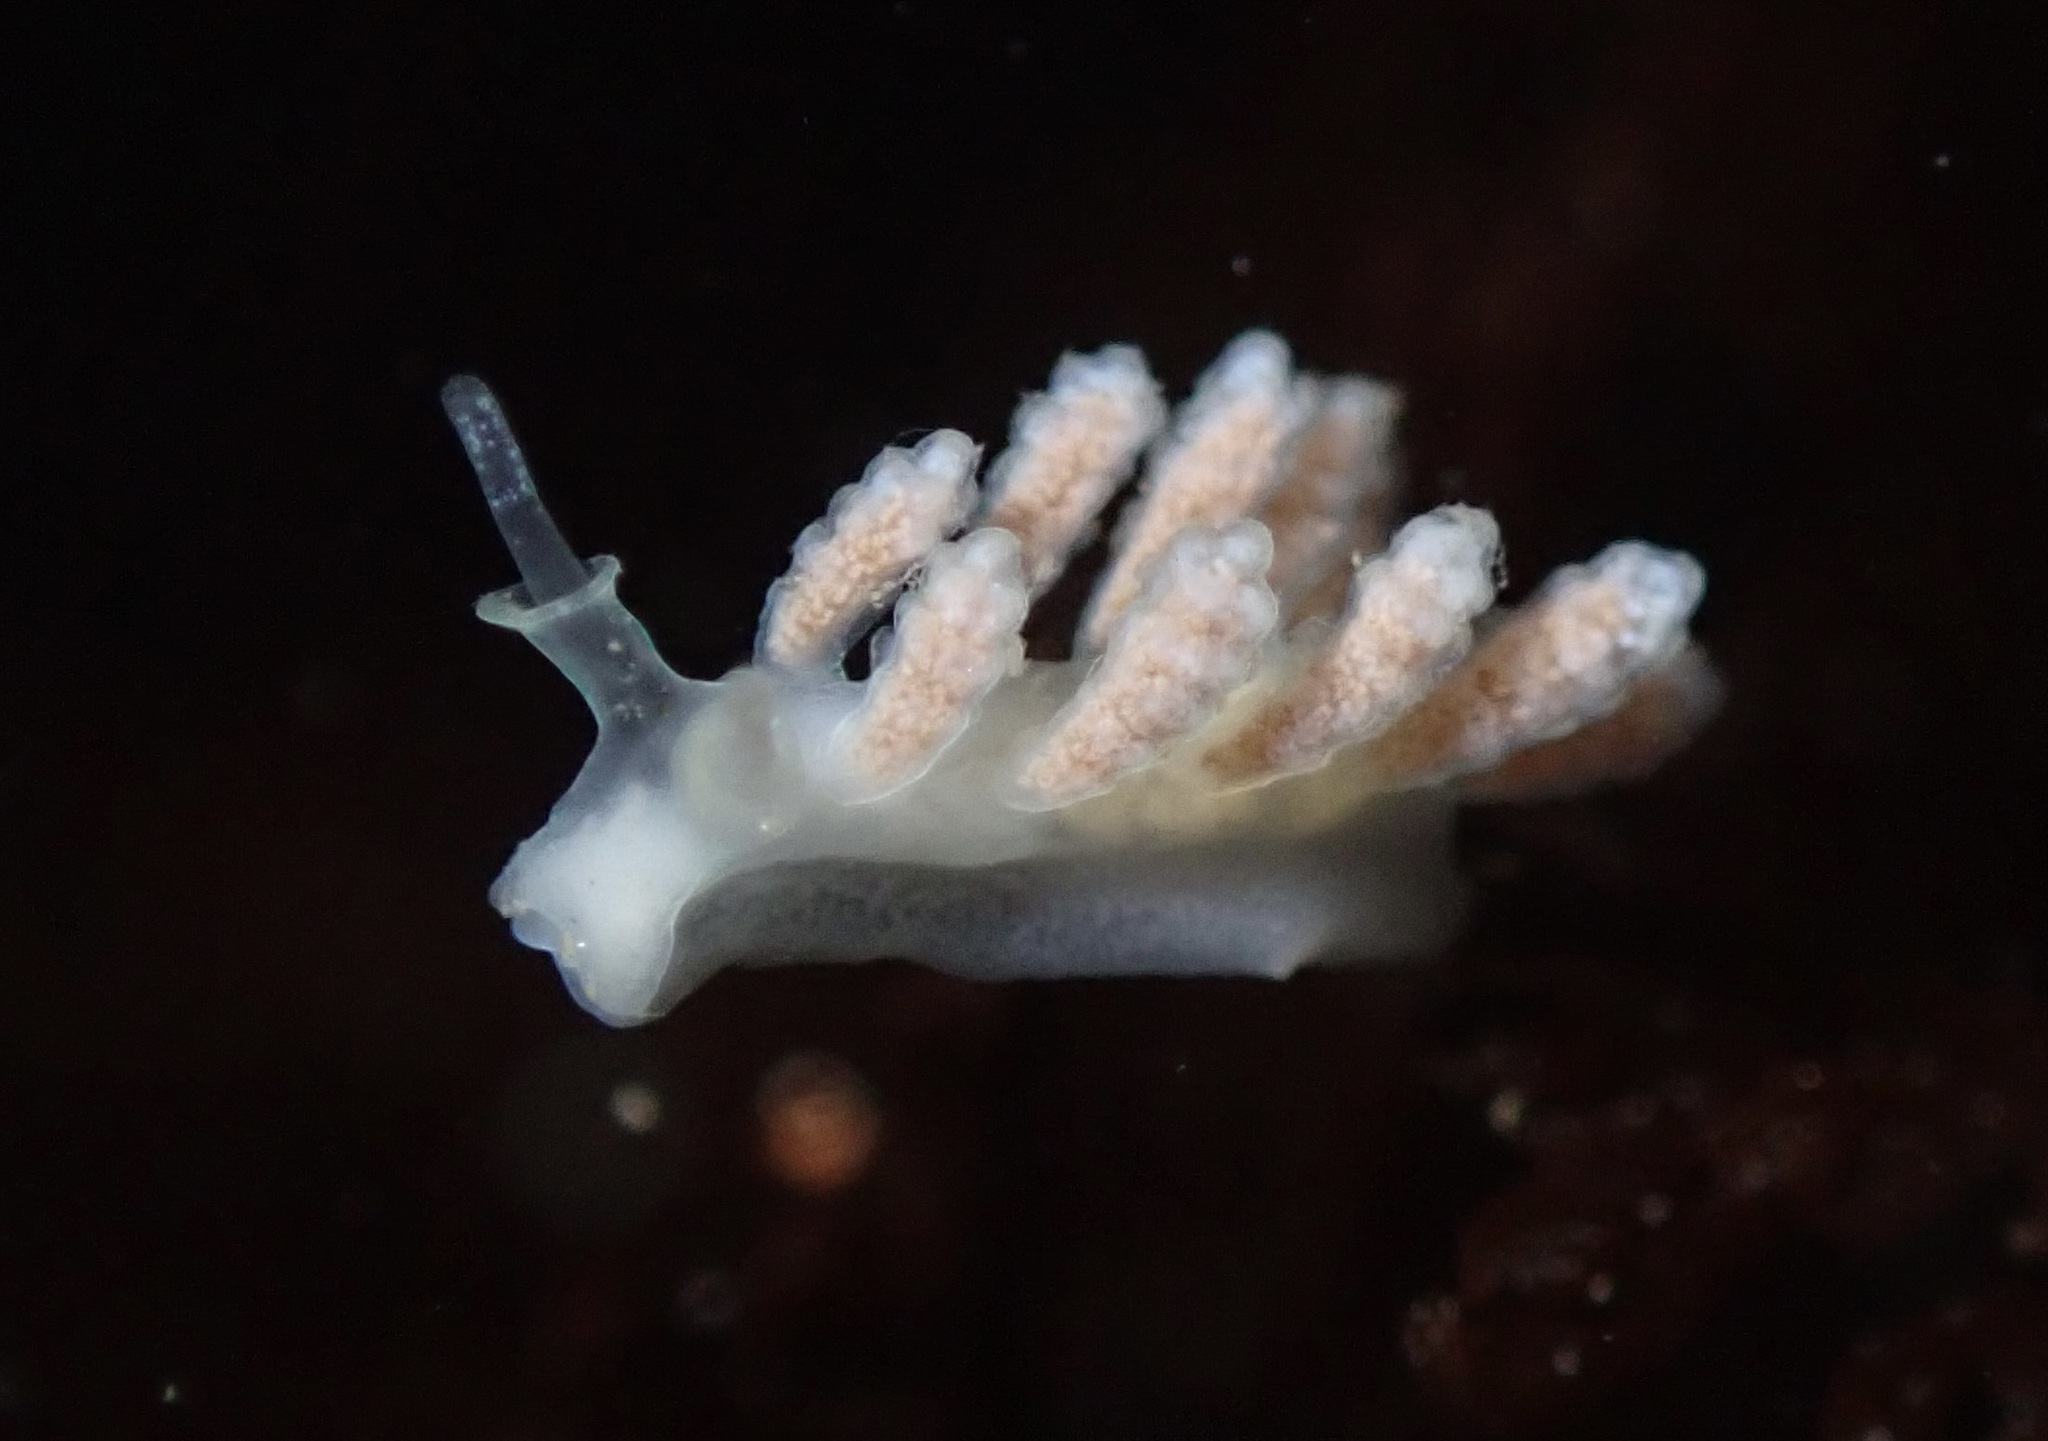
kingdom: Animalia
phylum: Mollusca
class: Gastropoda
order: Nudibranchia
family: Dotidae
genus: Doto
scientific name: Doto amyra
